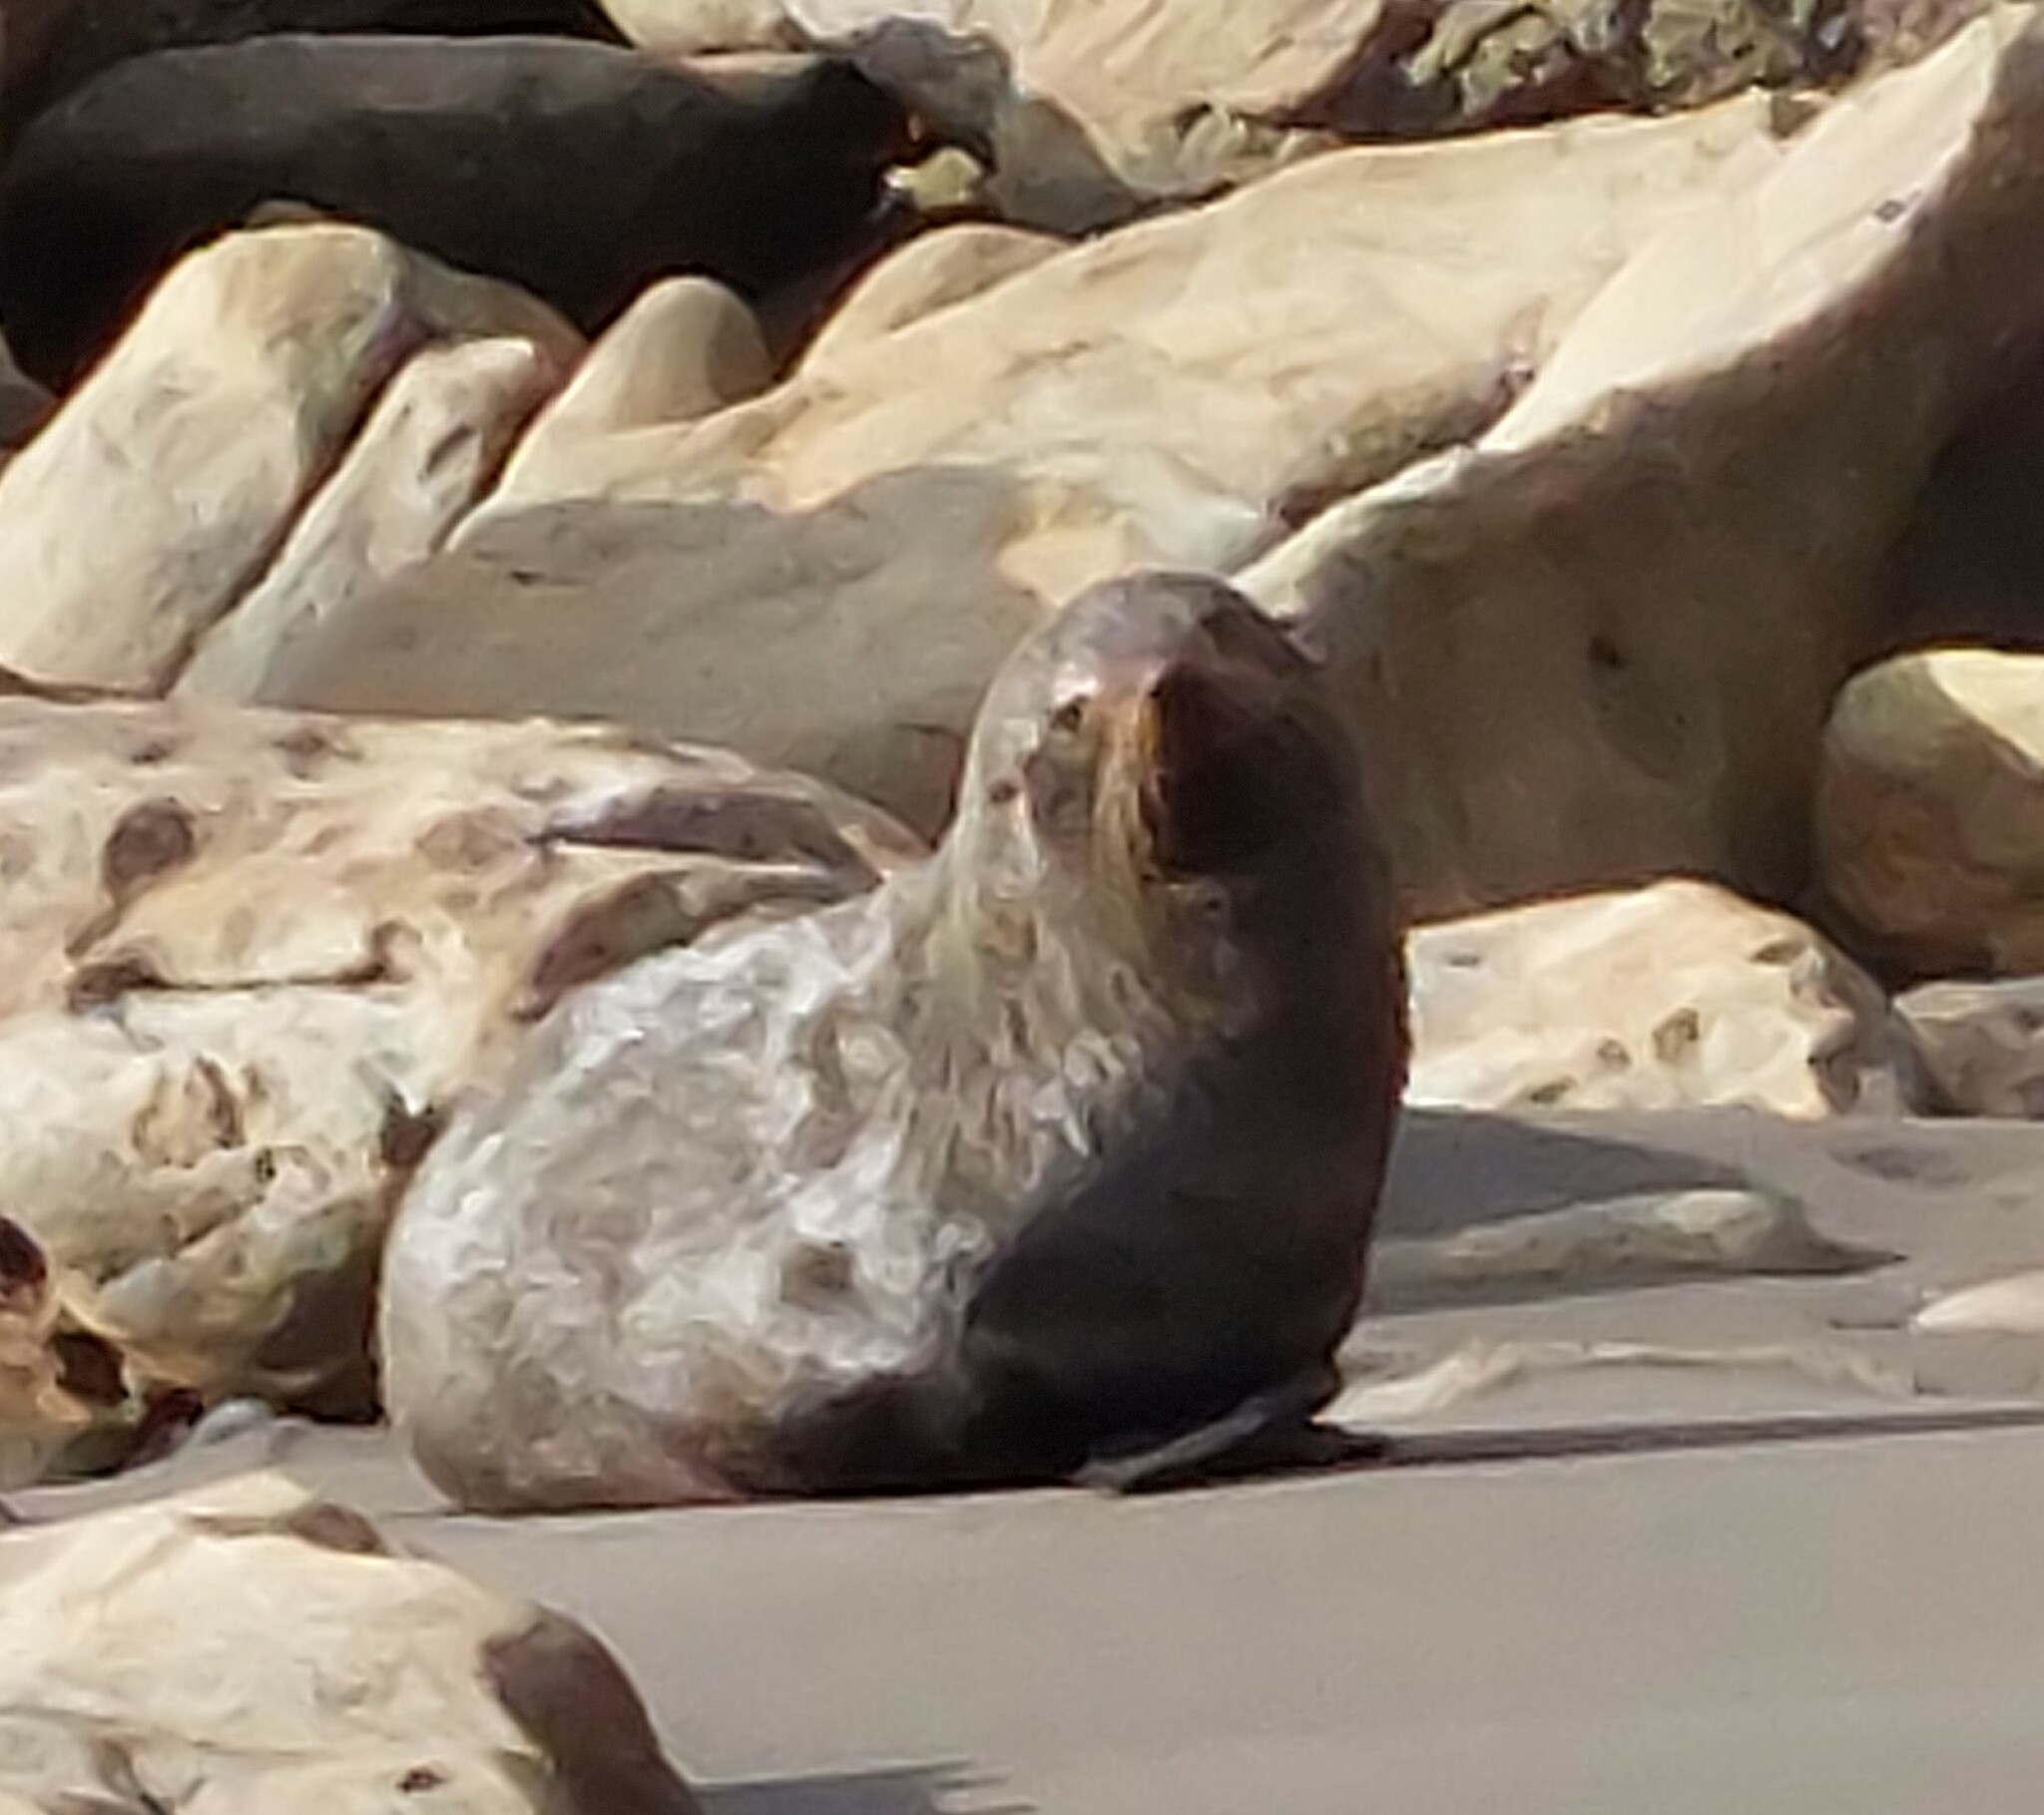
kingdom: Animalia
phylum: Chordata
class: Mammalia
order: Carnivora
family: Otariidae
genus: Arctocephalus
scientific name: Arctocephalus forsteri
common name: New zealand fur seal
